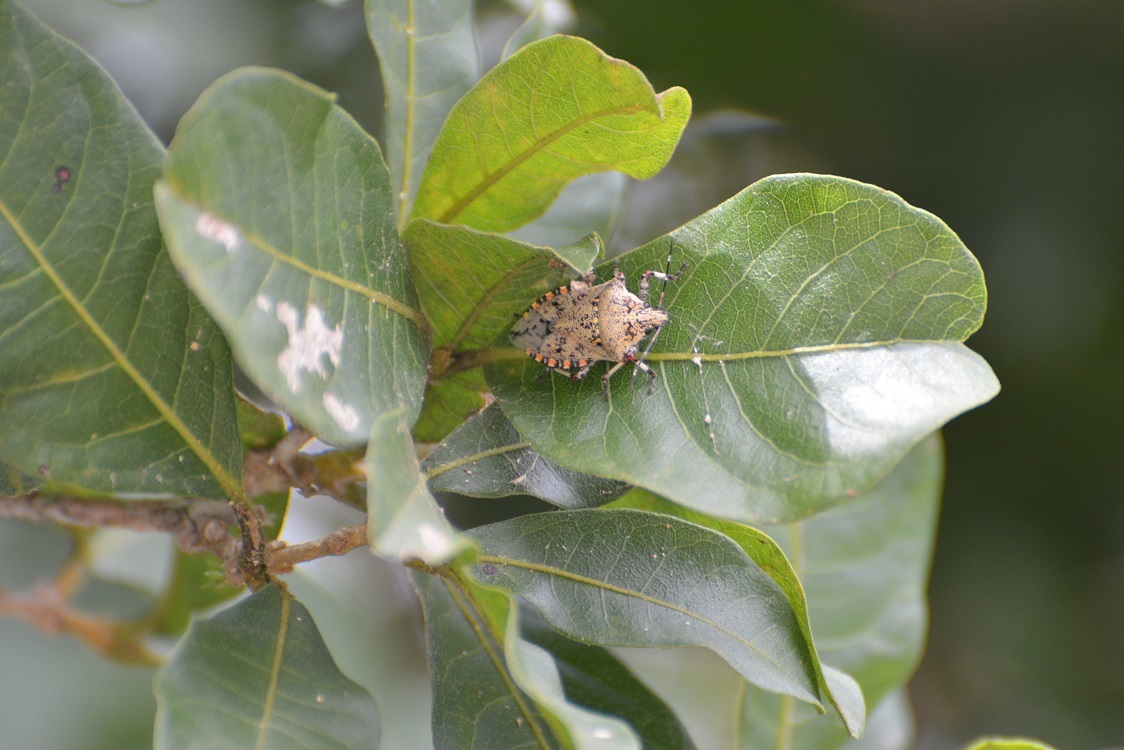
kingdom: Animalia
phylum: Arthropoda
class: Insecta
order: Hemiptera
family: Pentatomidae
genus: Apateticus
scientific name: Apateticus lineolatus
